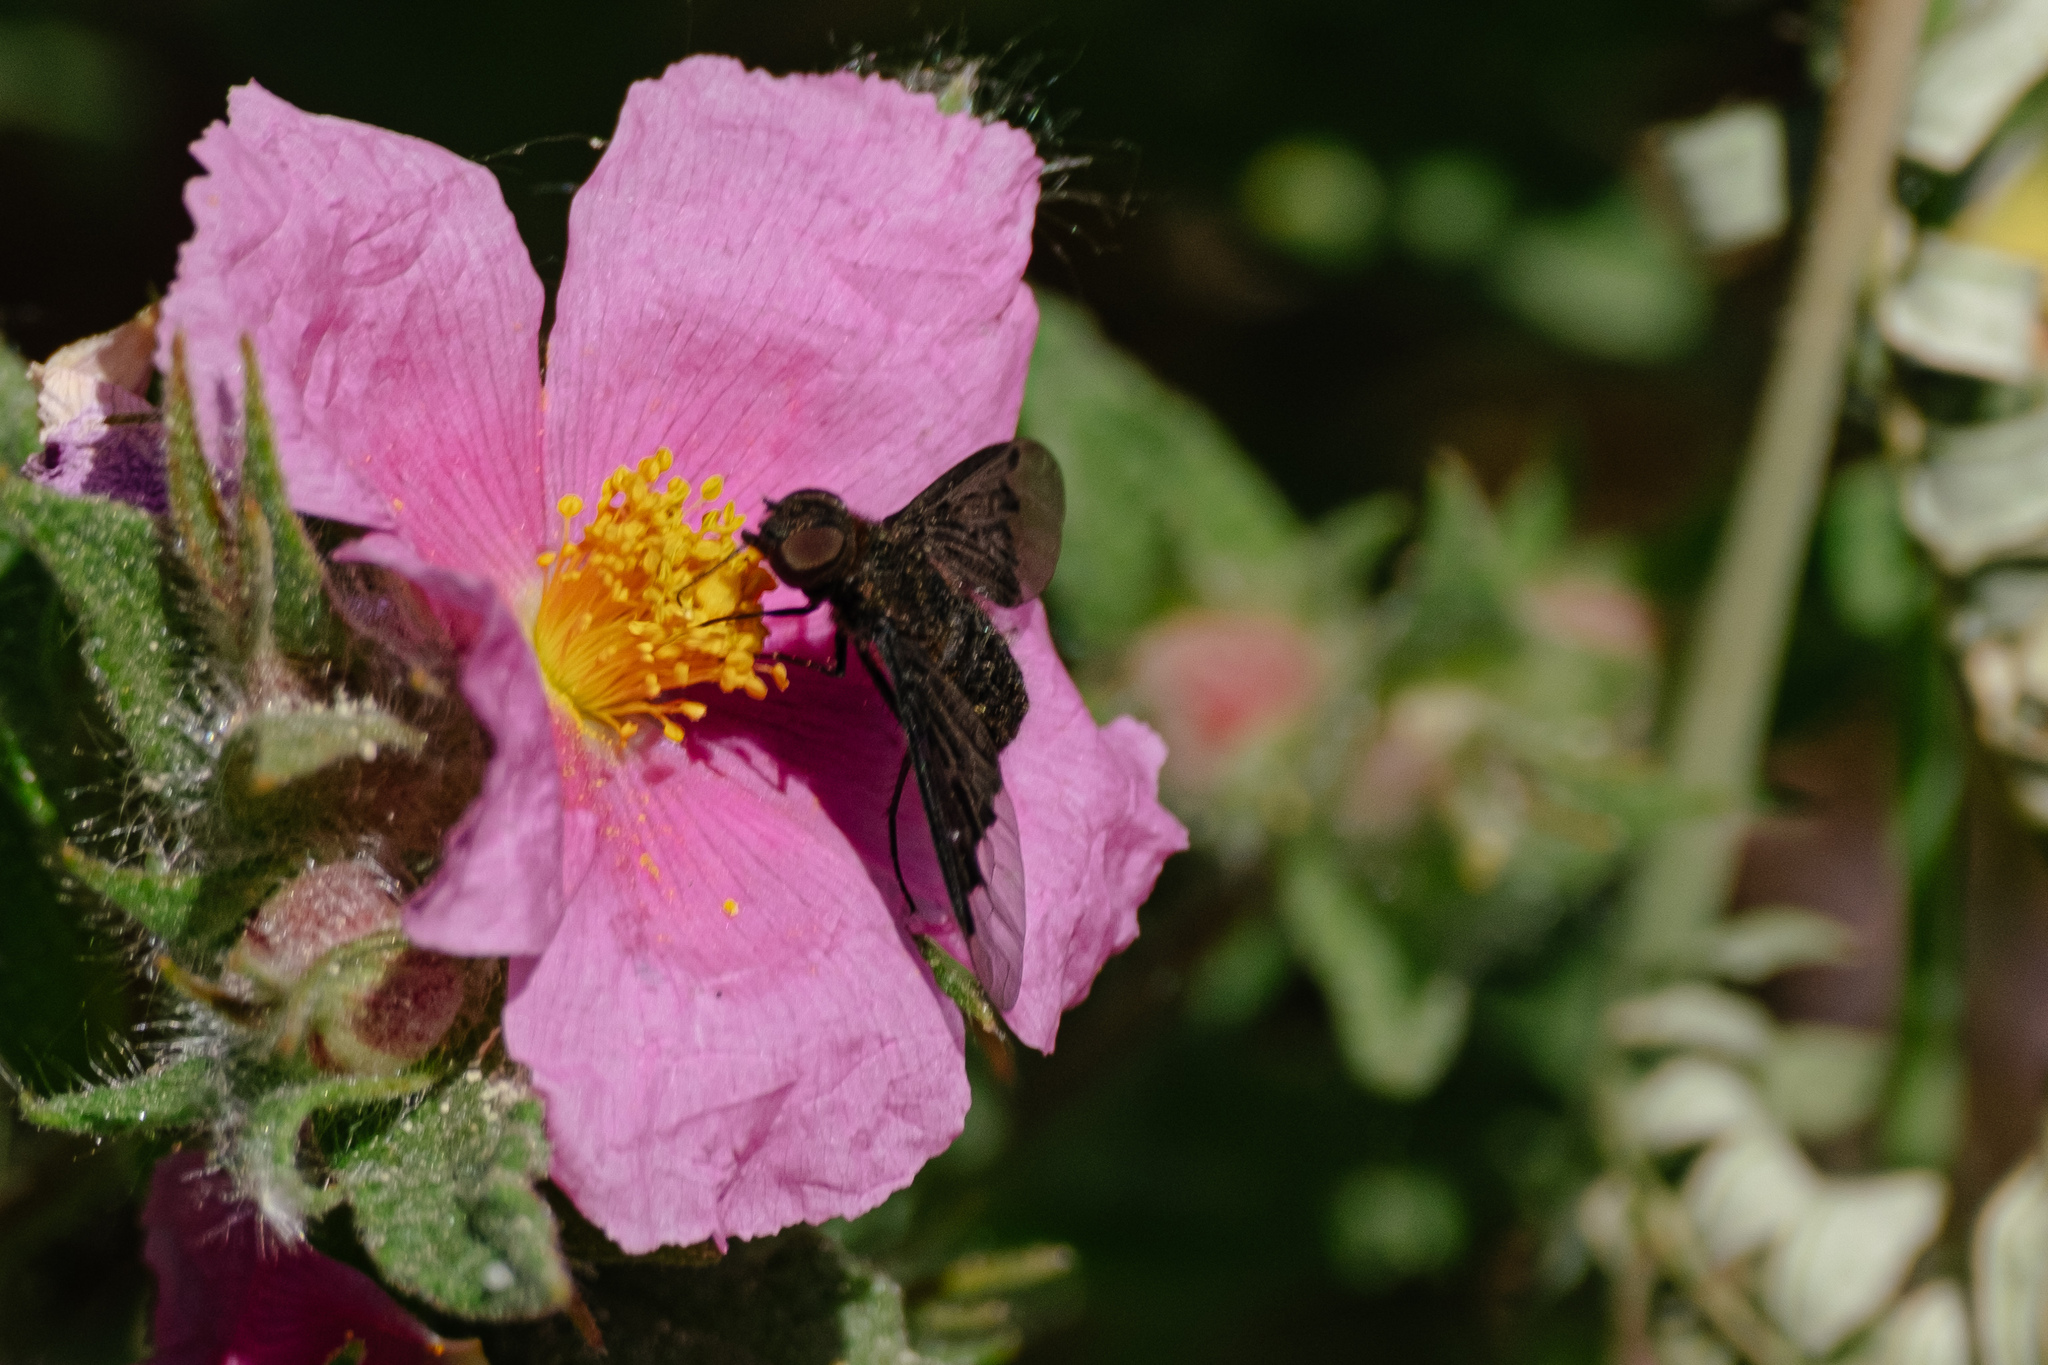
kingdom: Animalia
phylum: Arthropoda
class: Insecta
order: Diptera
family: Bombyliidae
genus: Hemipenthes
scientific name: Hemipenthes morio
